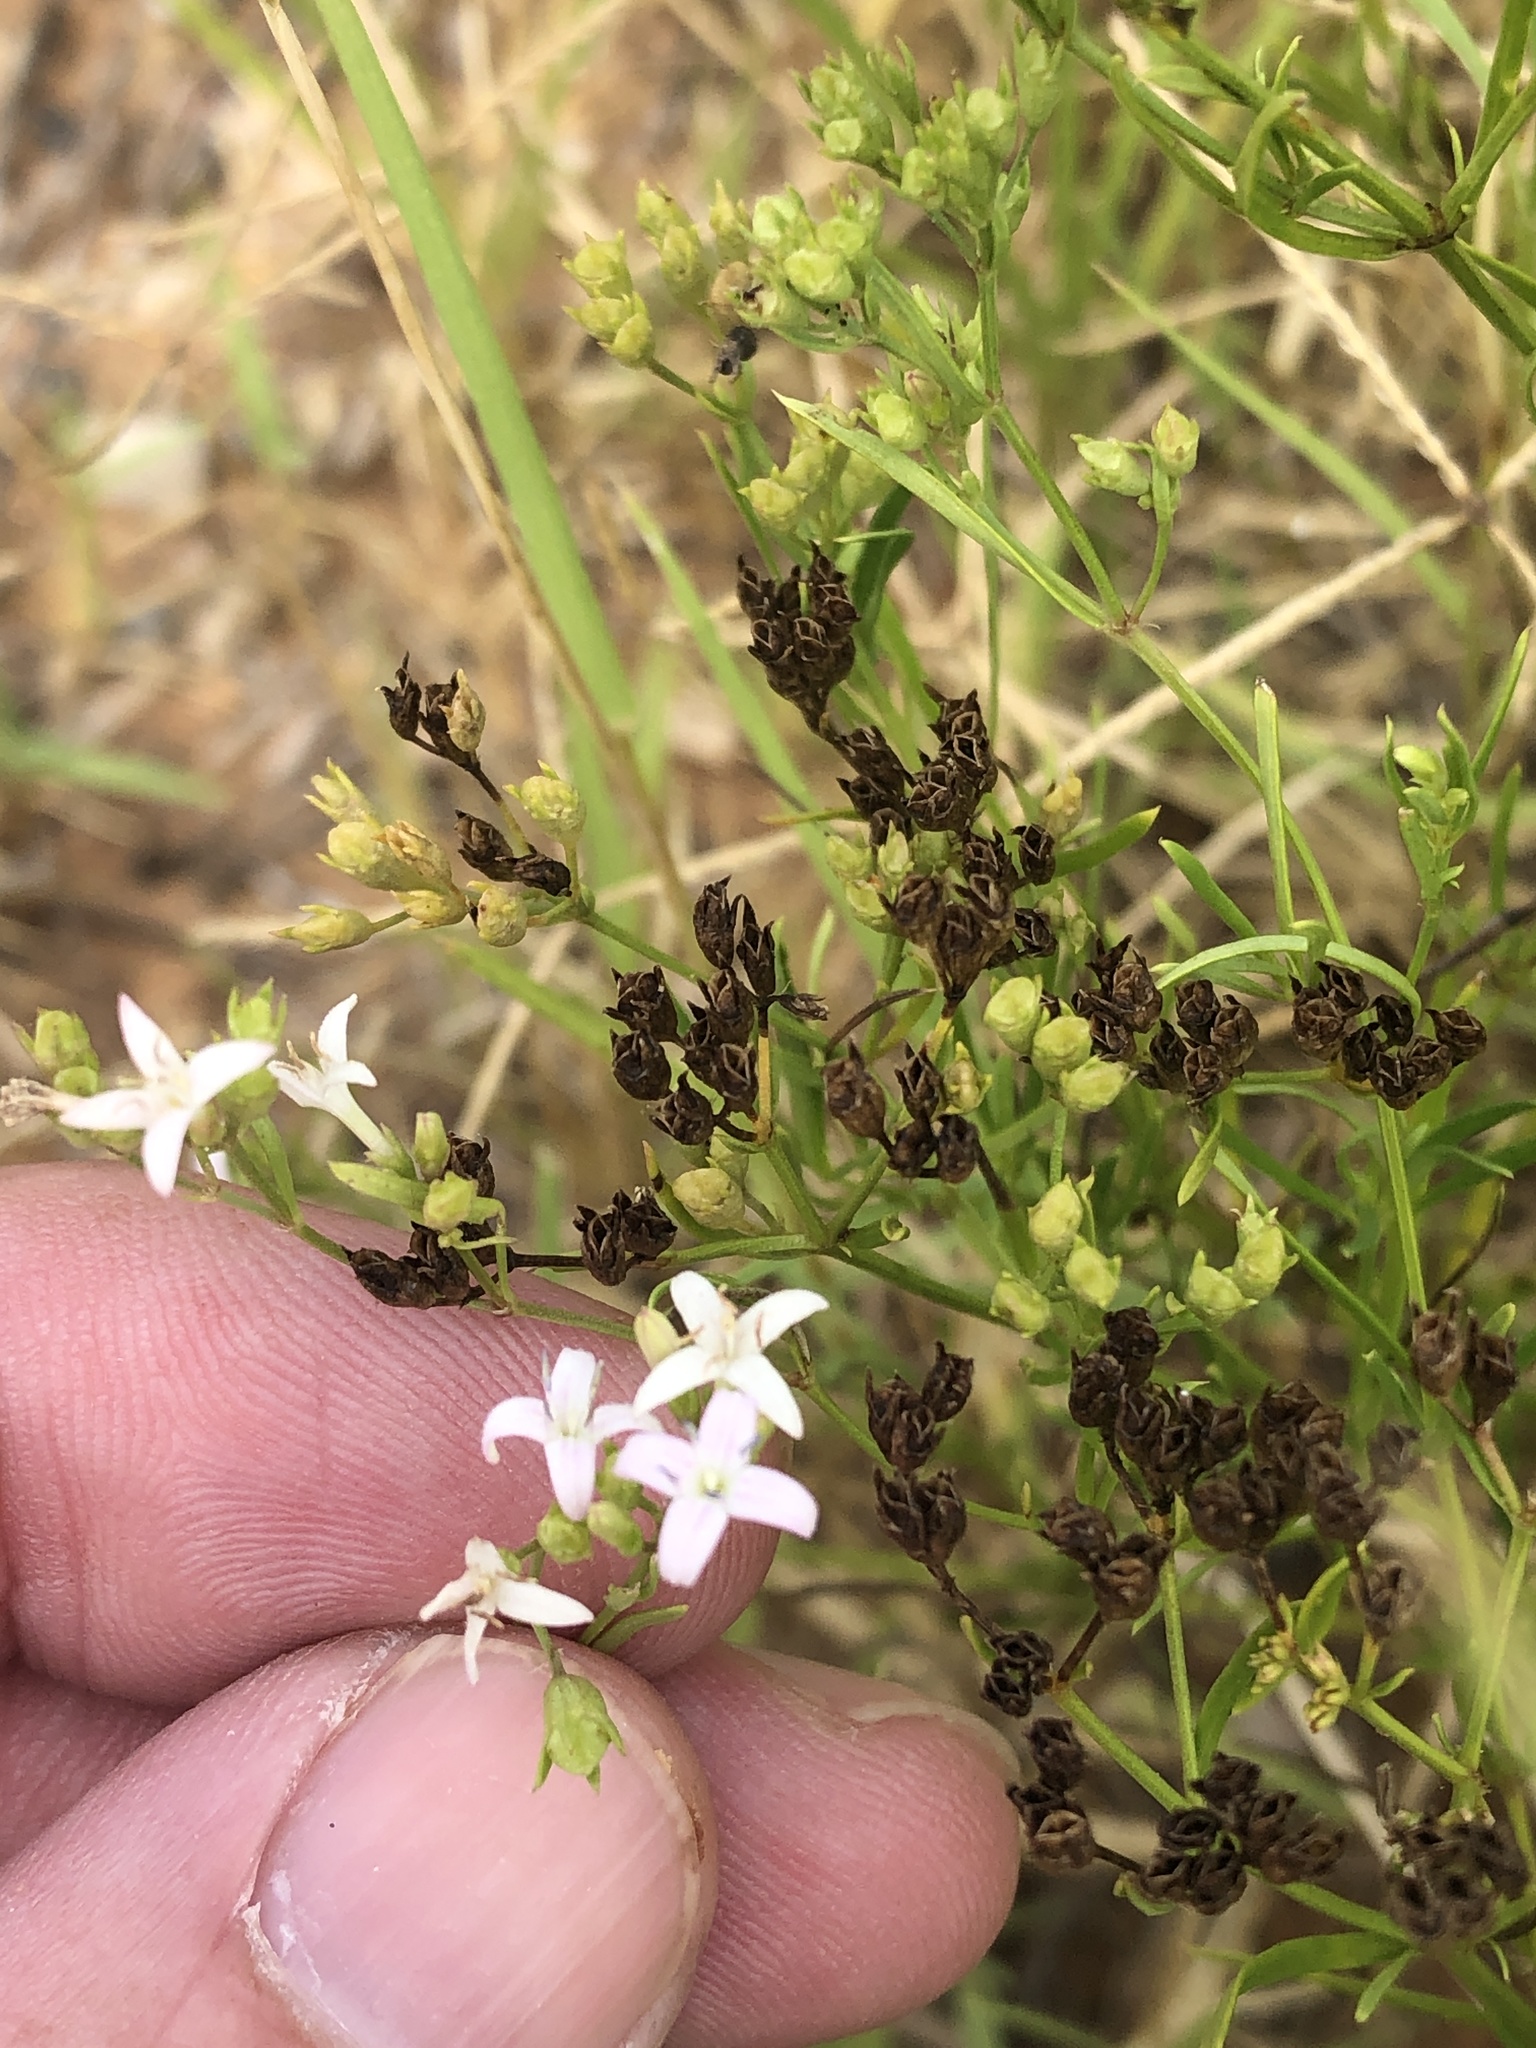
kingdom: Plantae
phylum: Tracheophyta
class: Magnoliopsida
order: Gentianales
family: Rubiaceae
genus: Stenaria
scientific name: Stenaria nigricans
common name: Diamondflowers
